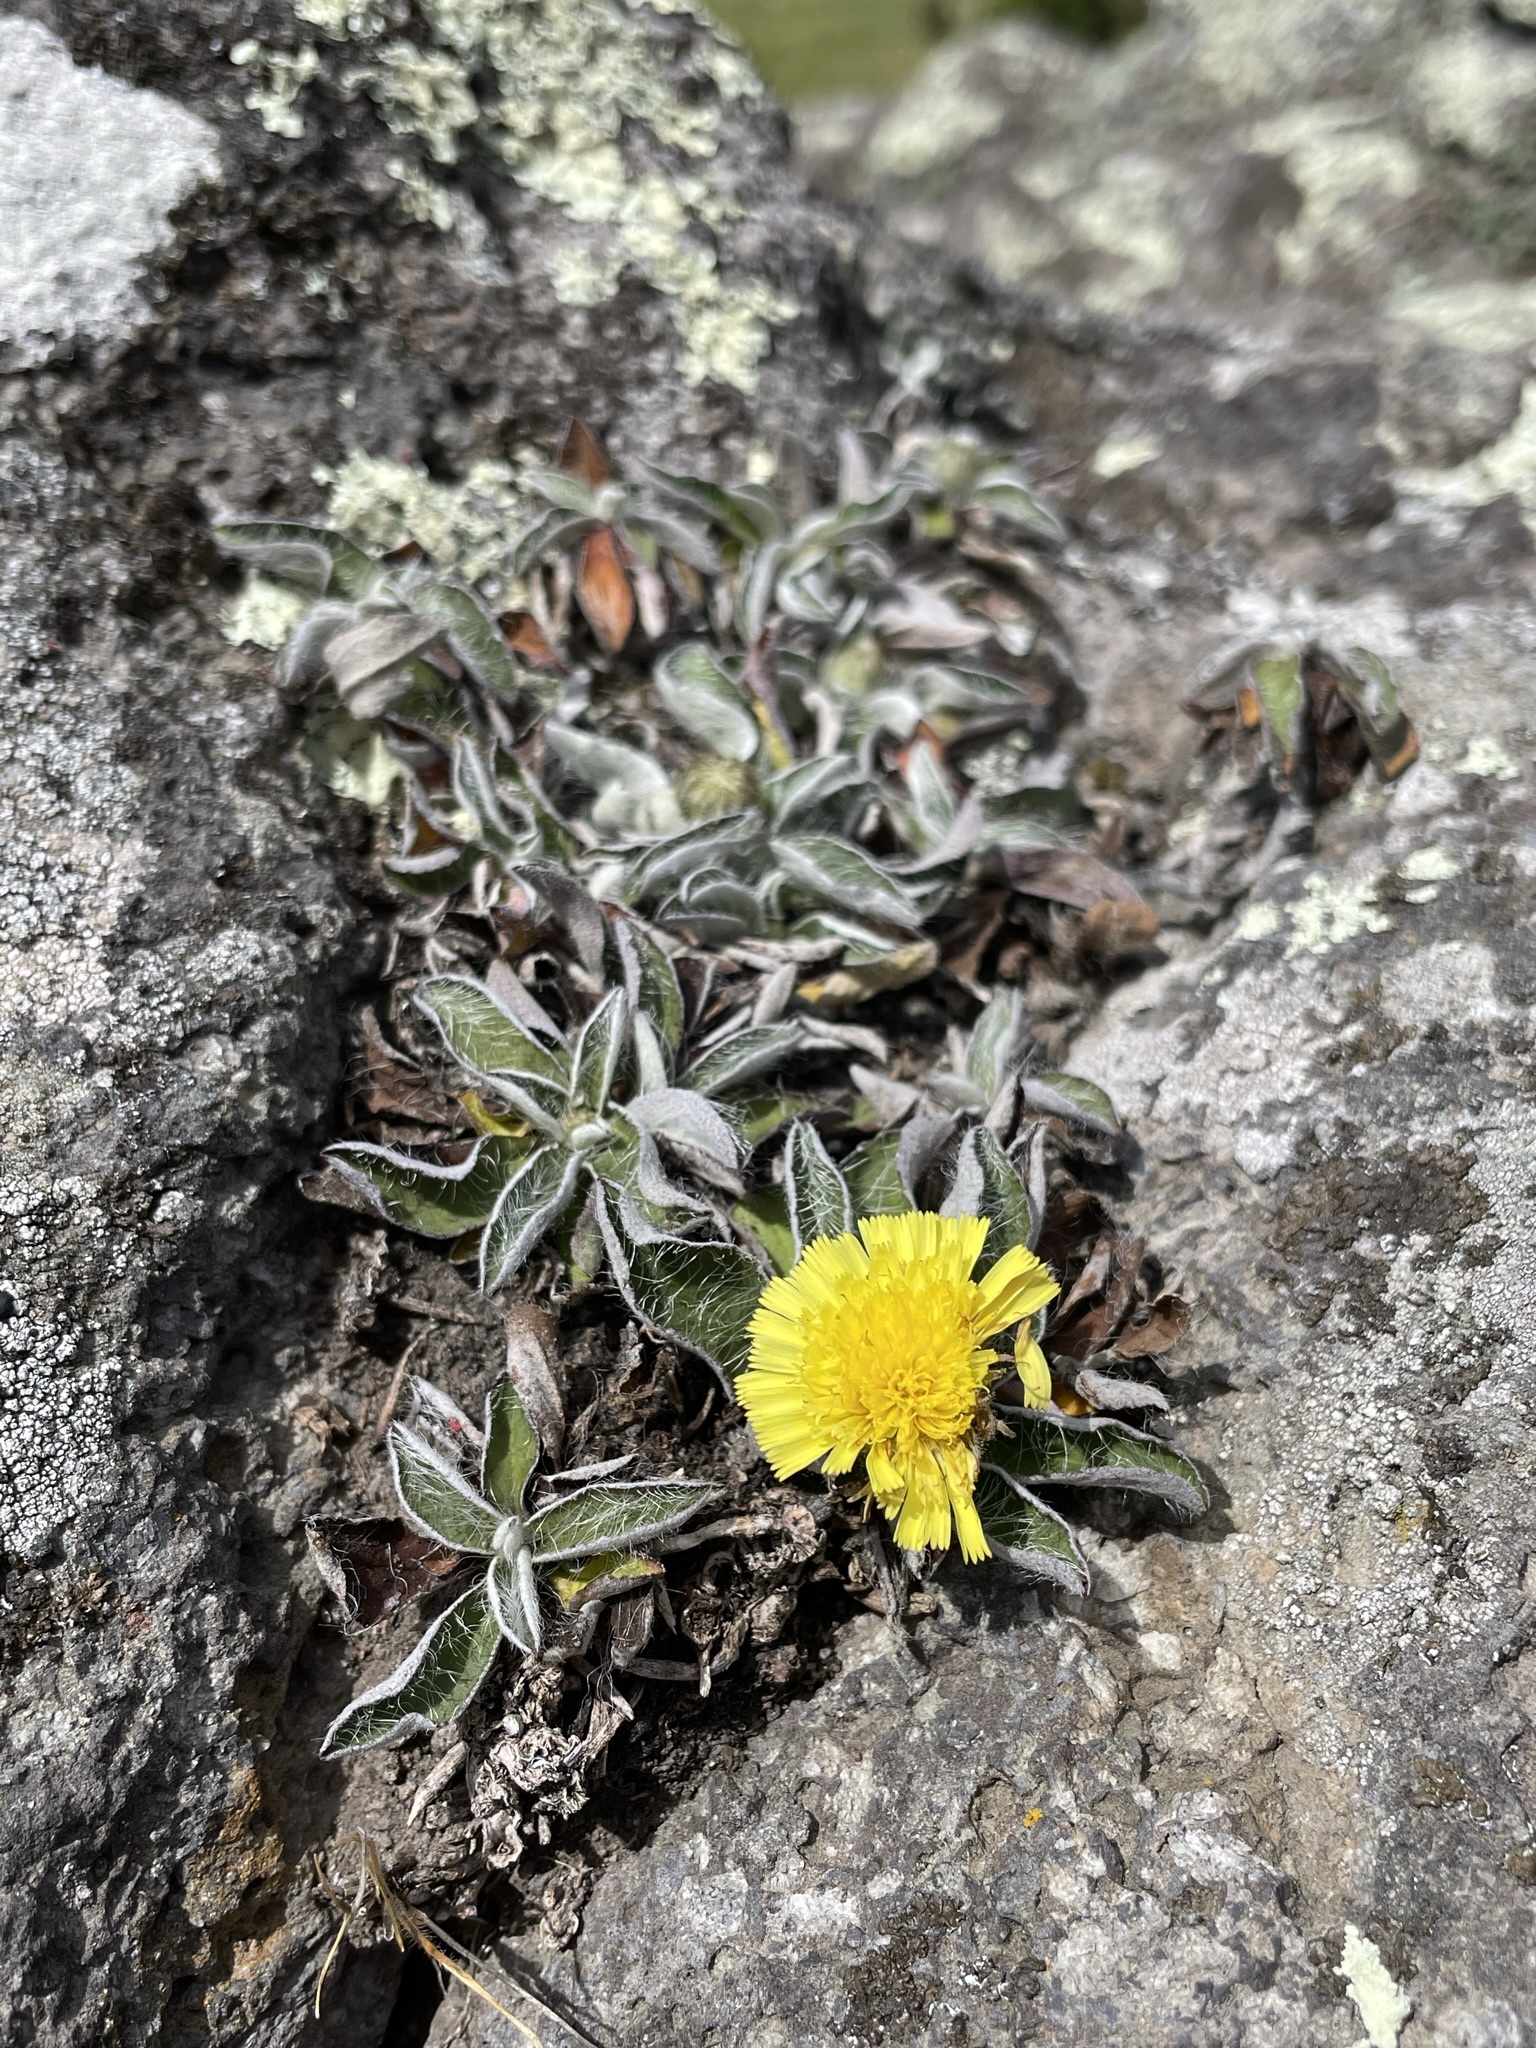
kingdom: Plantae
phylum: Tracheophyta
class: Magnoliopsida
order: Asterales
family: Asteraceae
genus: Pilosella
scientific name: Pilosella officinarum
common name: Mouse-ear hawkweed
